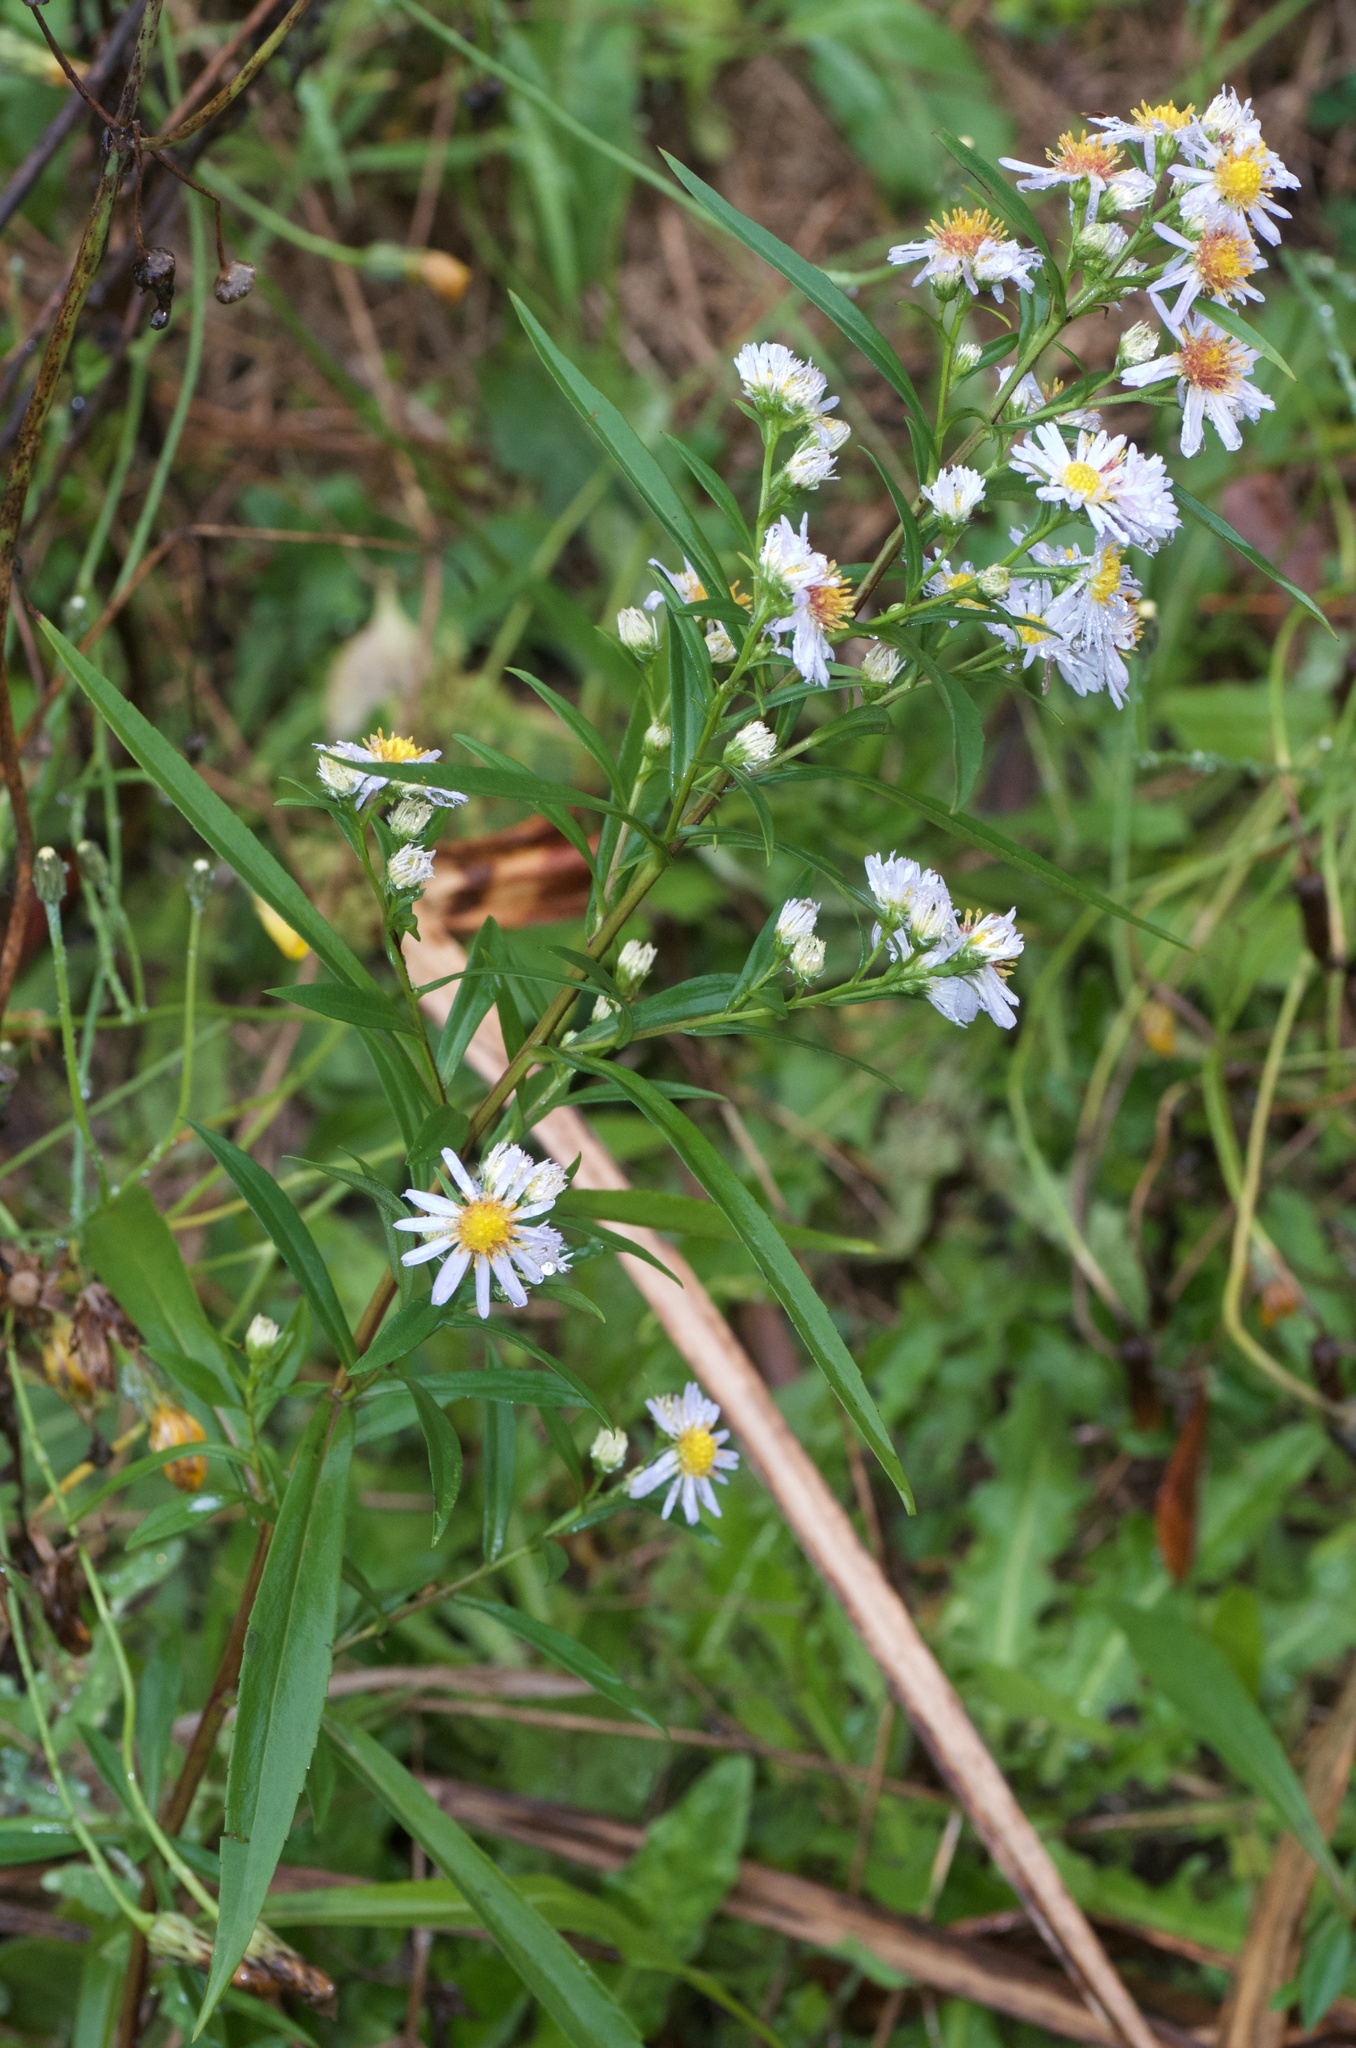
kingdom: Plantae
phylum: Tracheophyta
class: Magnoliopsida
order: Asterales
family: Asteraceae
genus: Symphyotrichum
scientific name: Symphyotrichum novi-belgii
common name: Michaelmas daisy
